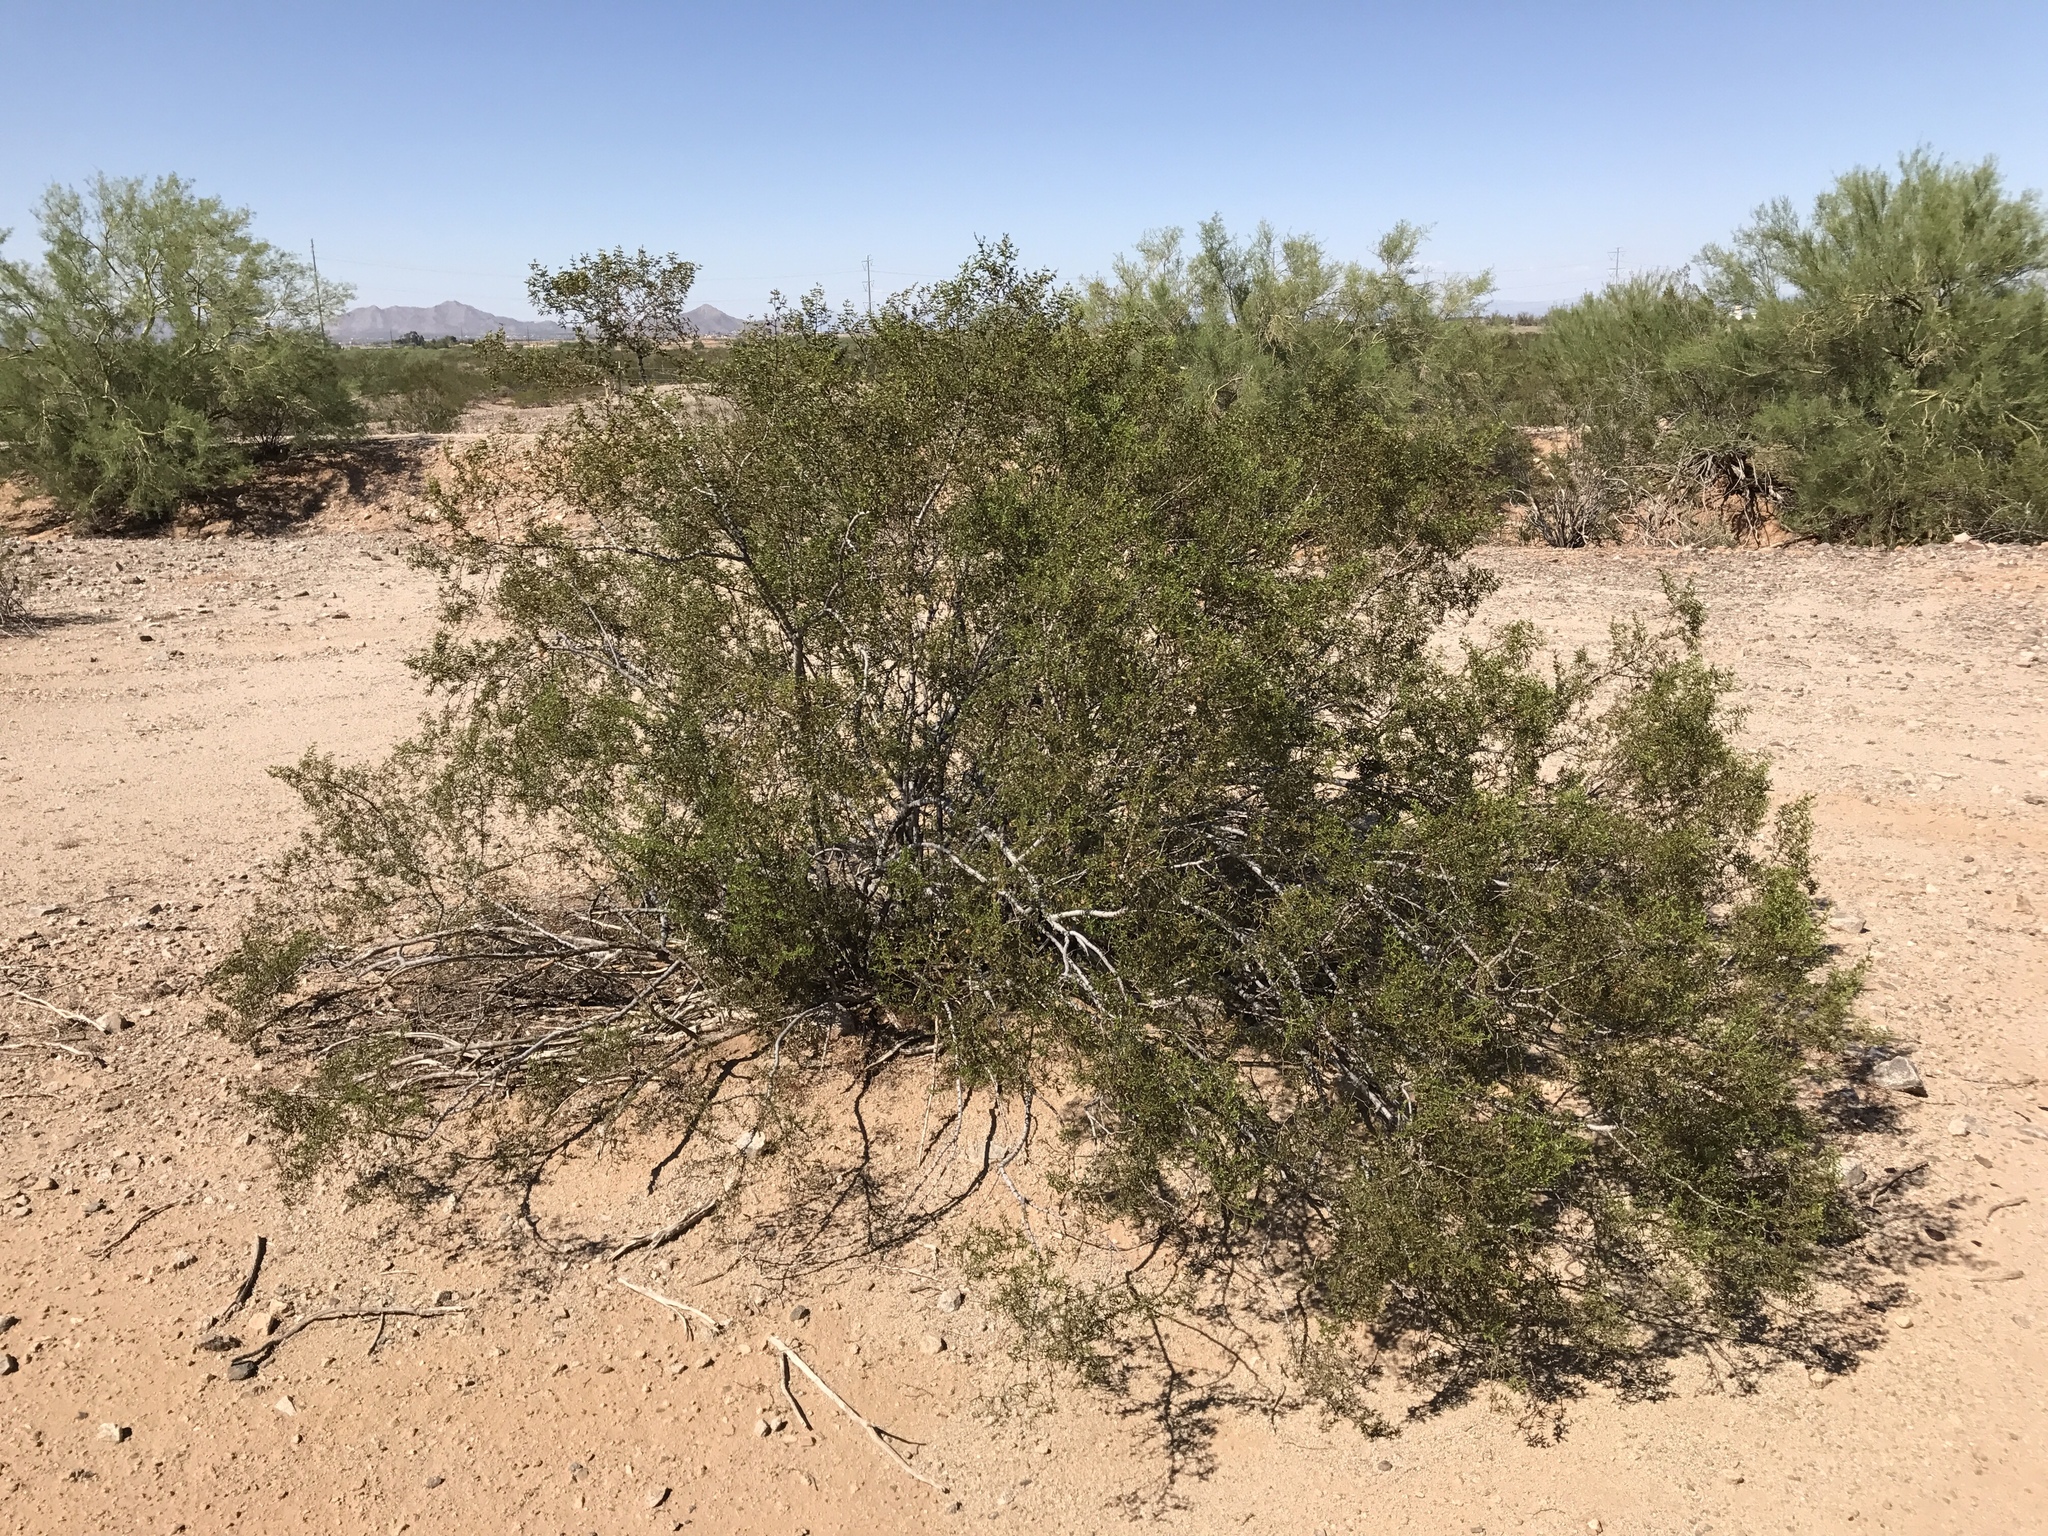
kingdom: Plantae
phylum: Tracheophyta
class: Magnoliopsida
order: Zygophyllales
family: Zygophyllaceae
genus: Larrea
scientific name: Larrea tridentata
